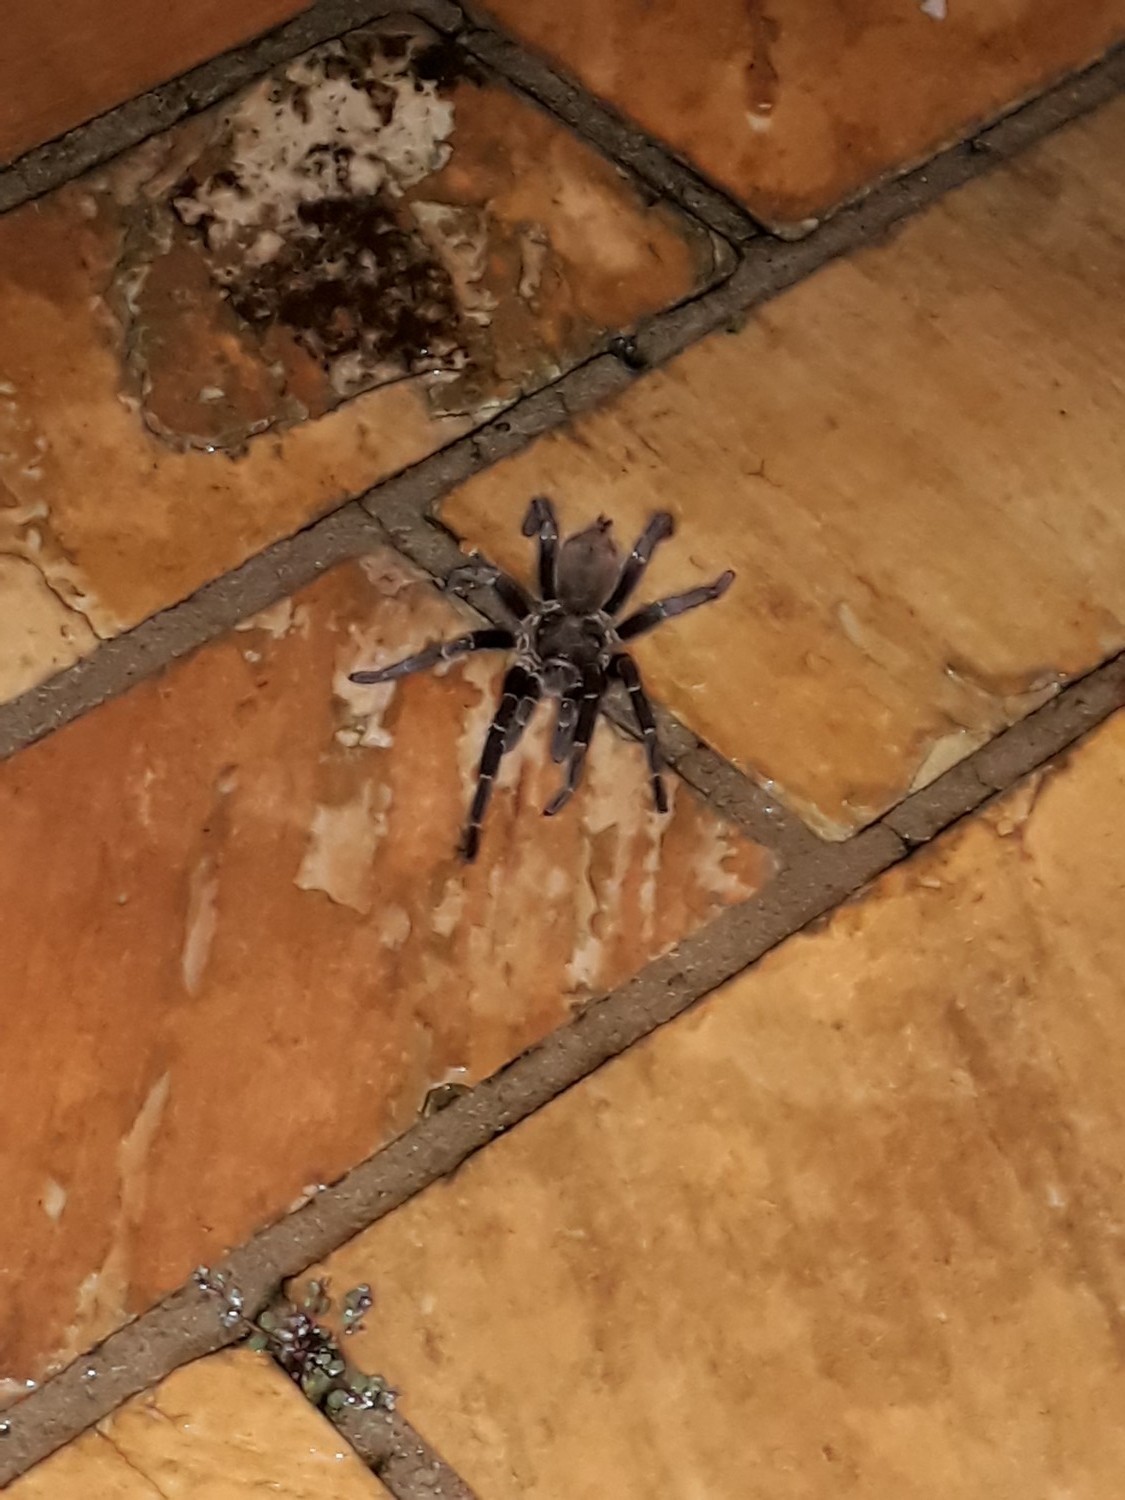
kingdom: Animalia
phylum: Arthropoda
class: Arachnida
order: Araneae
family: Theraphosidae
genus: Eupalaestrus
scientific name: Eupalaestrus crassimetatarsis
